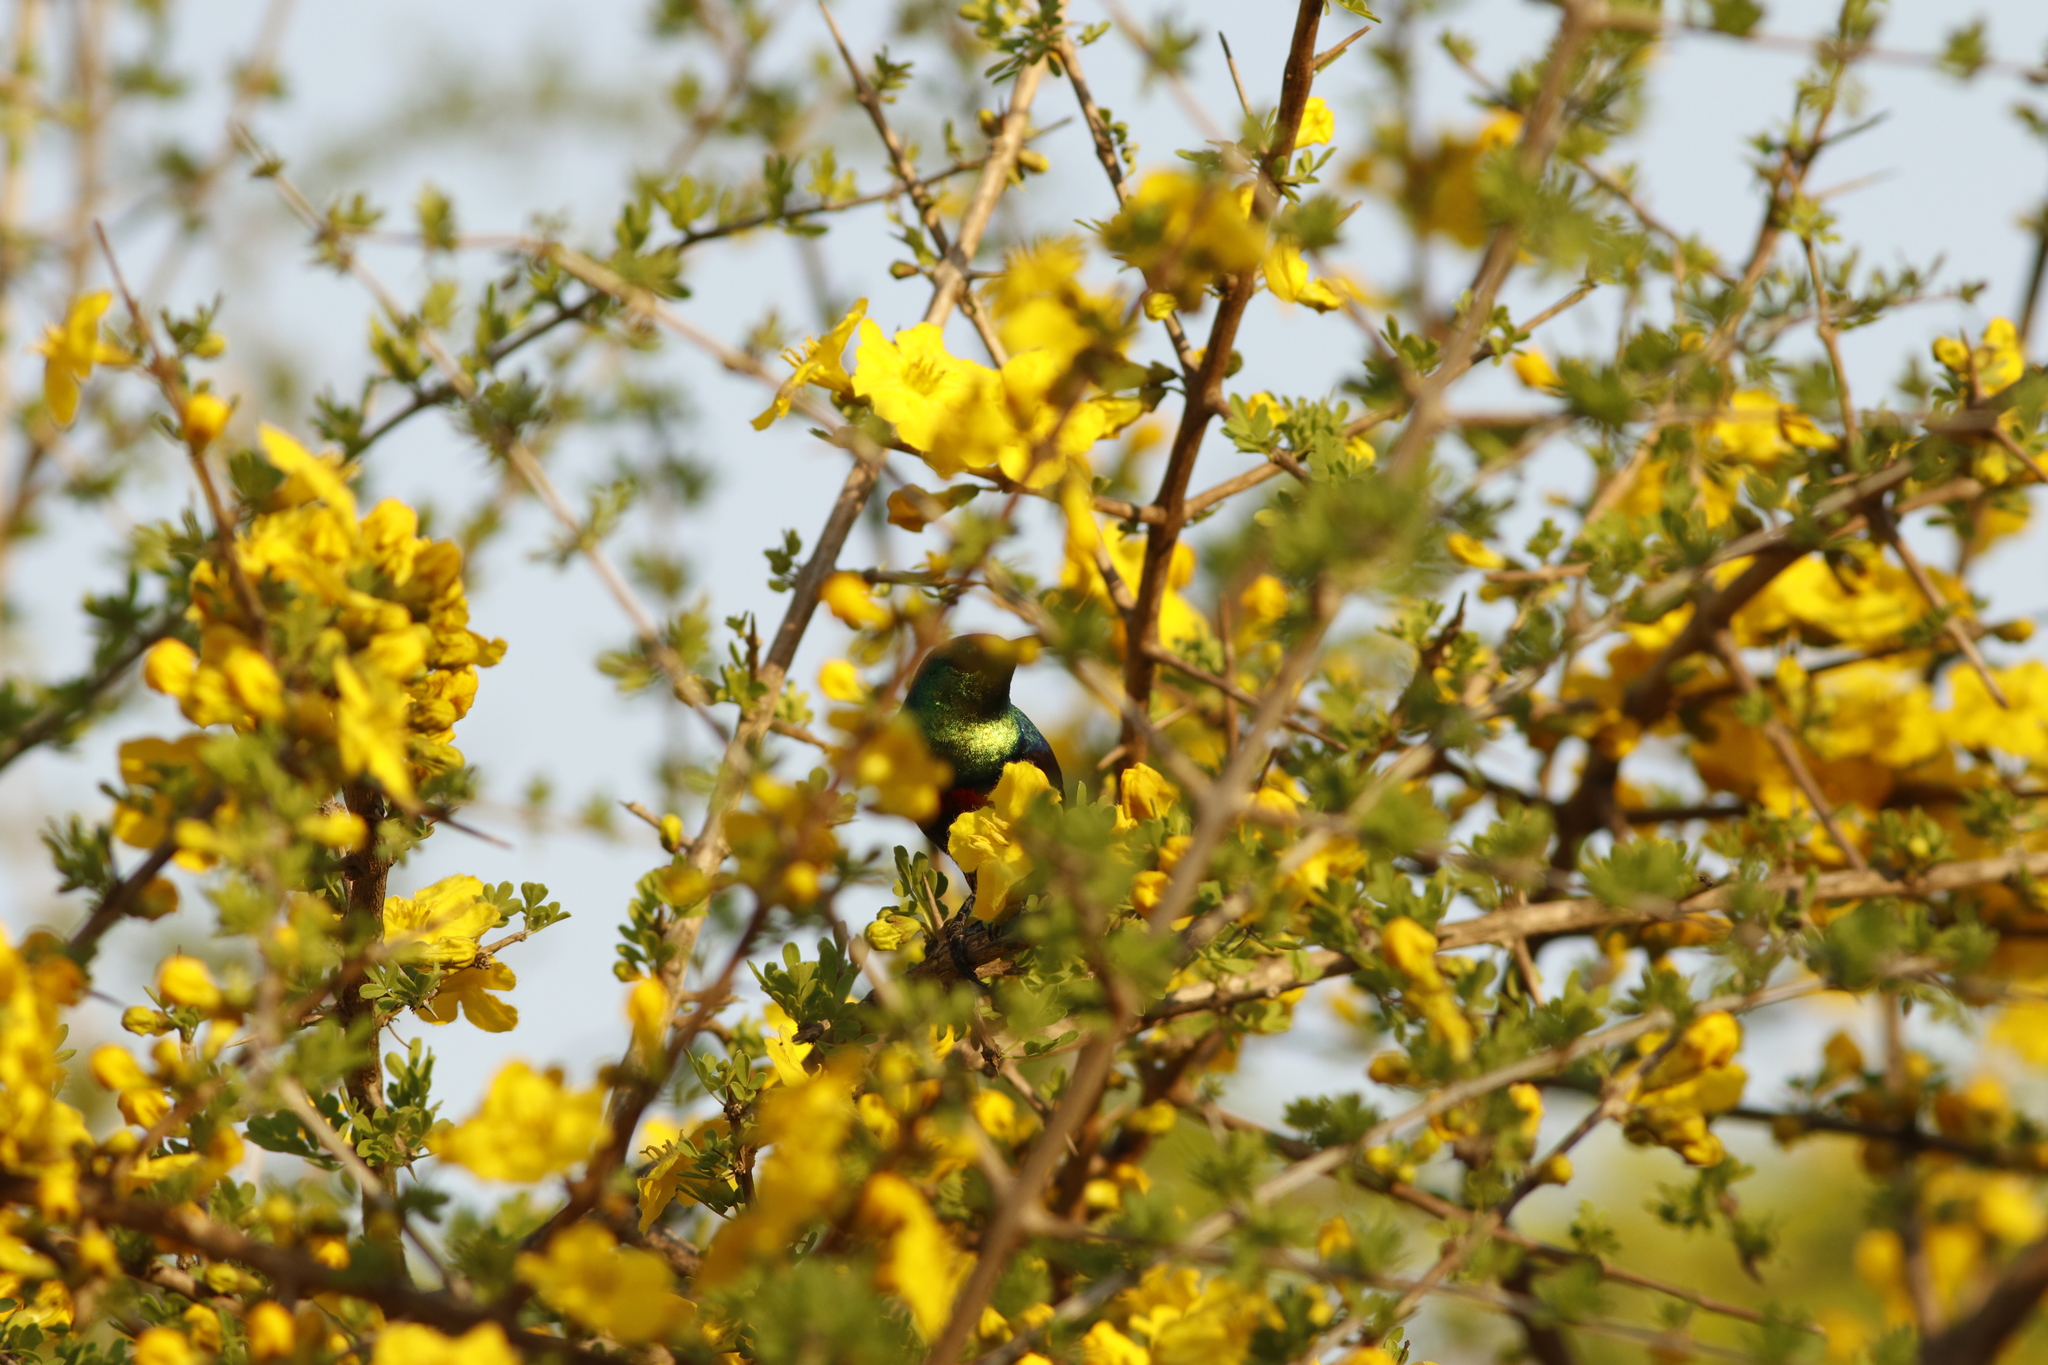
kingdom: Animalia
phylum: Chordata
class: Aves
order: Passeriformes
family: Nectariniidae
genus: Cinnyris
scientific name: Cinnyris mariquensis
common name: Marico sunbird
